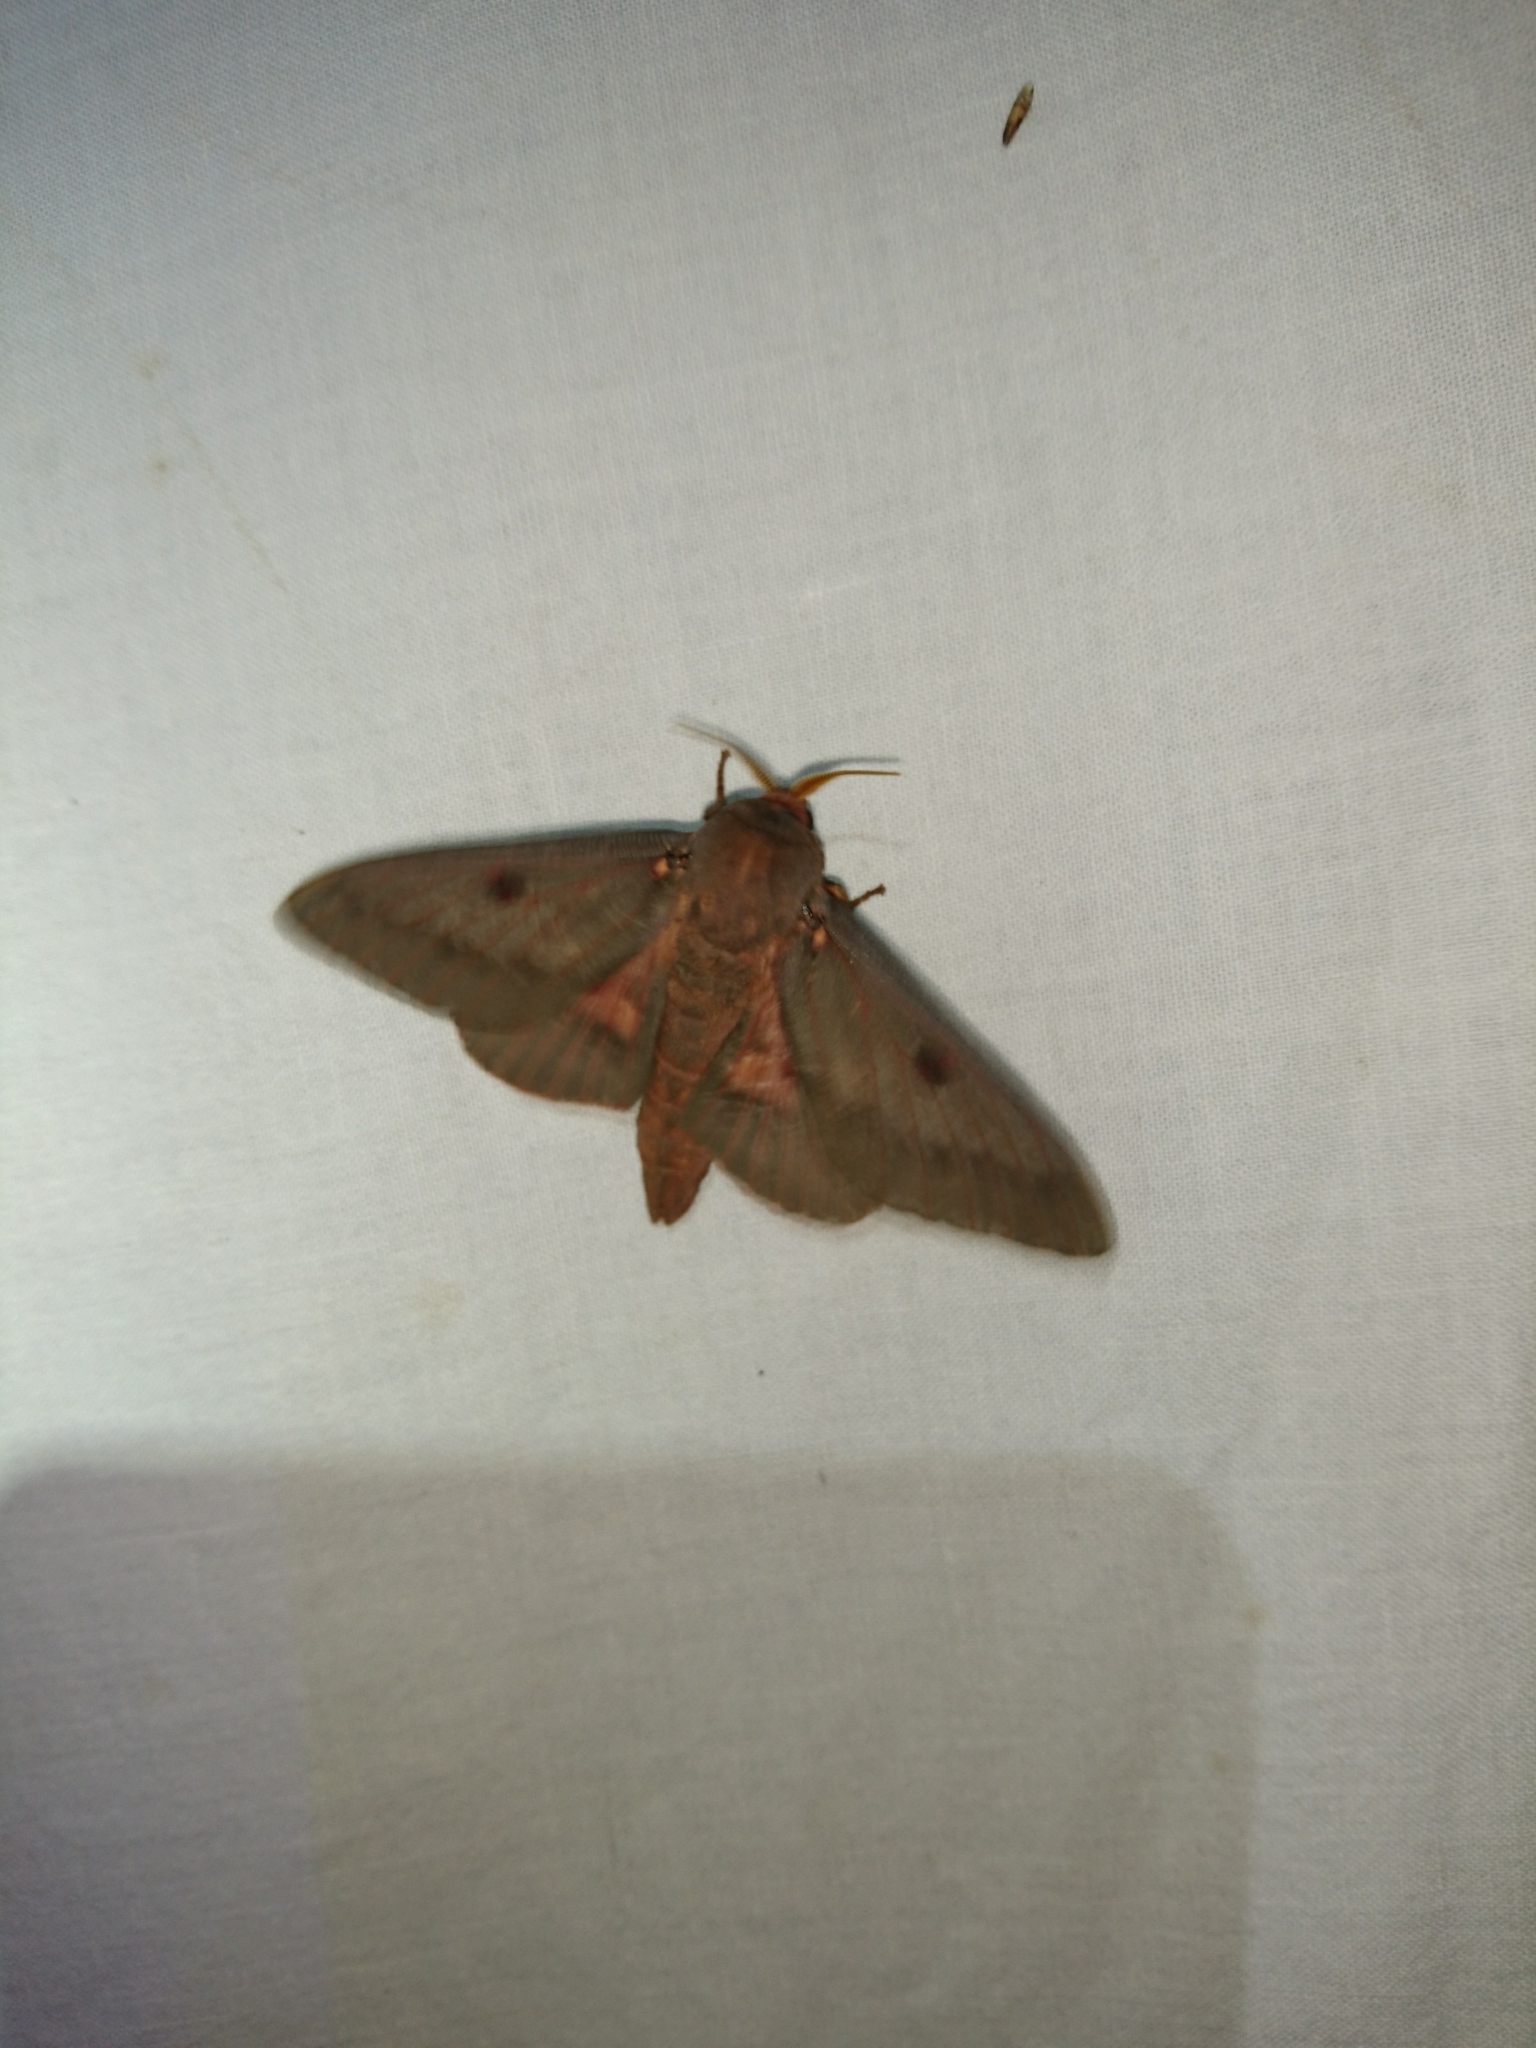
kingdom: Animalia
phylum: Arthropoda
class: Insecta
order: Lepidoptera
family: Saturniidae
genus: Citheronia
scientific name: Citheronia sepulcralis
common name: Pine-devil moth
